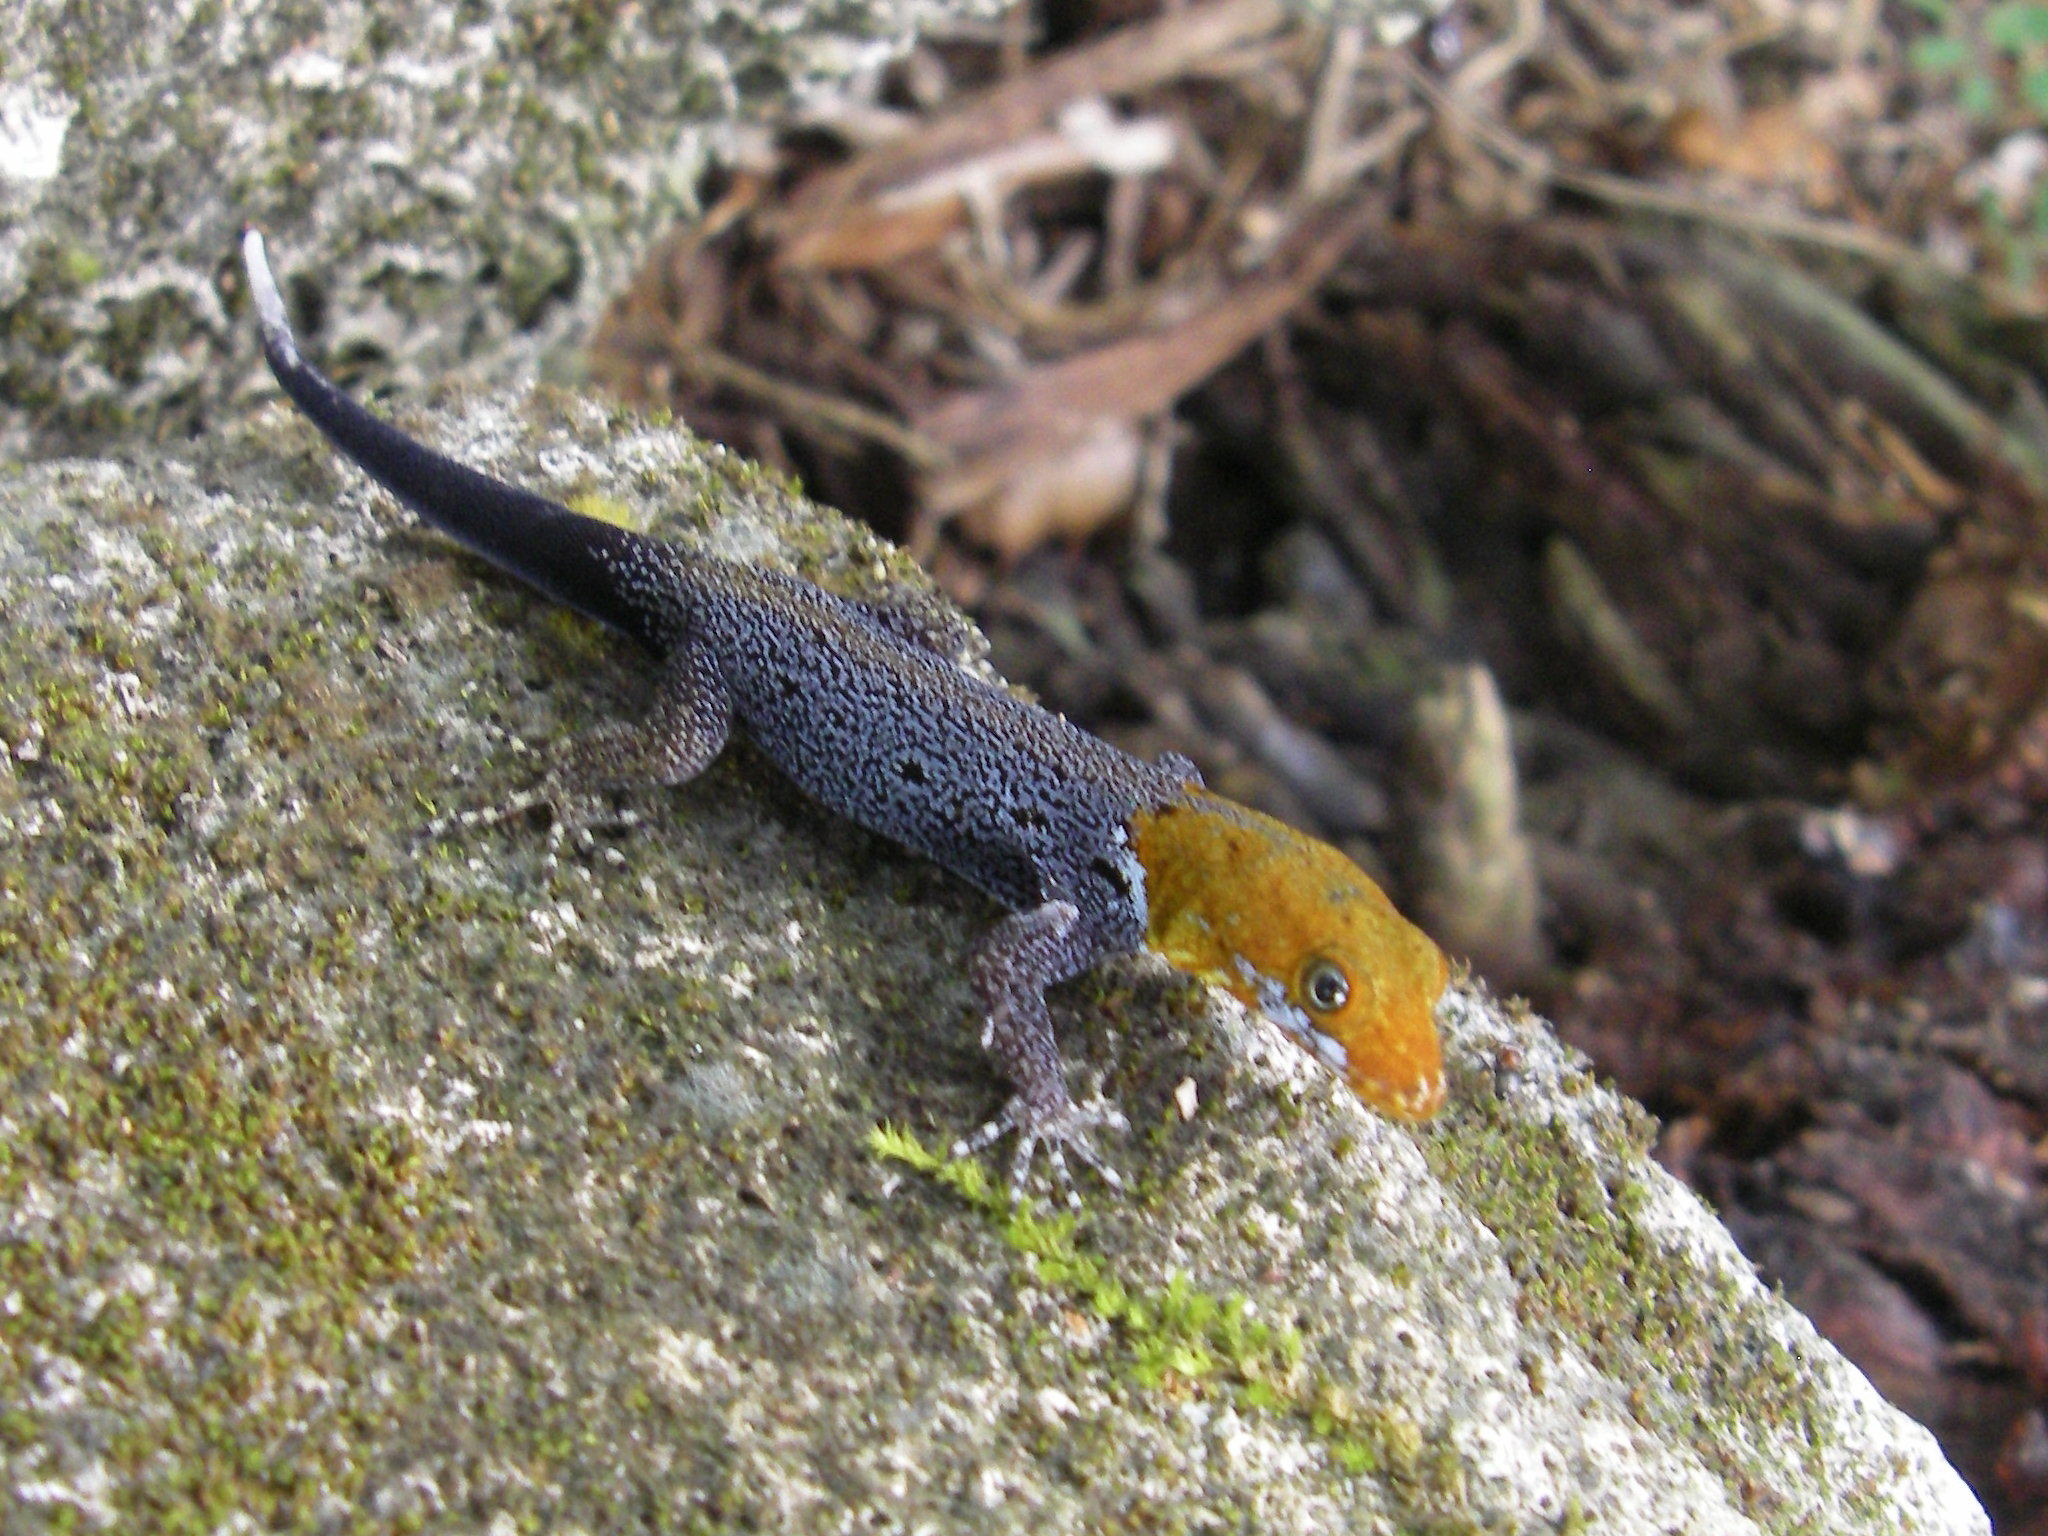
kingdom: Animalia
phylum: Chordata
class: Squamata
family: Sphaerodactylidae
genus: Gonatodes
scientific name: Gonatodes albogularis
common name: Yellow-headed gecko
